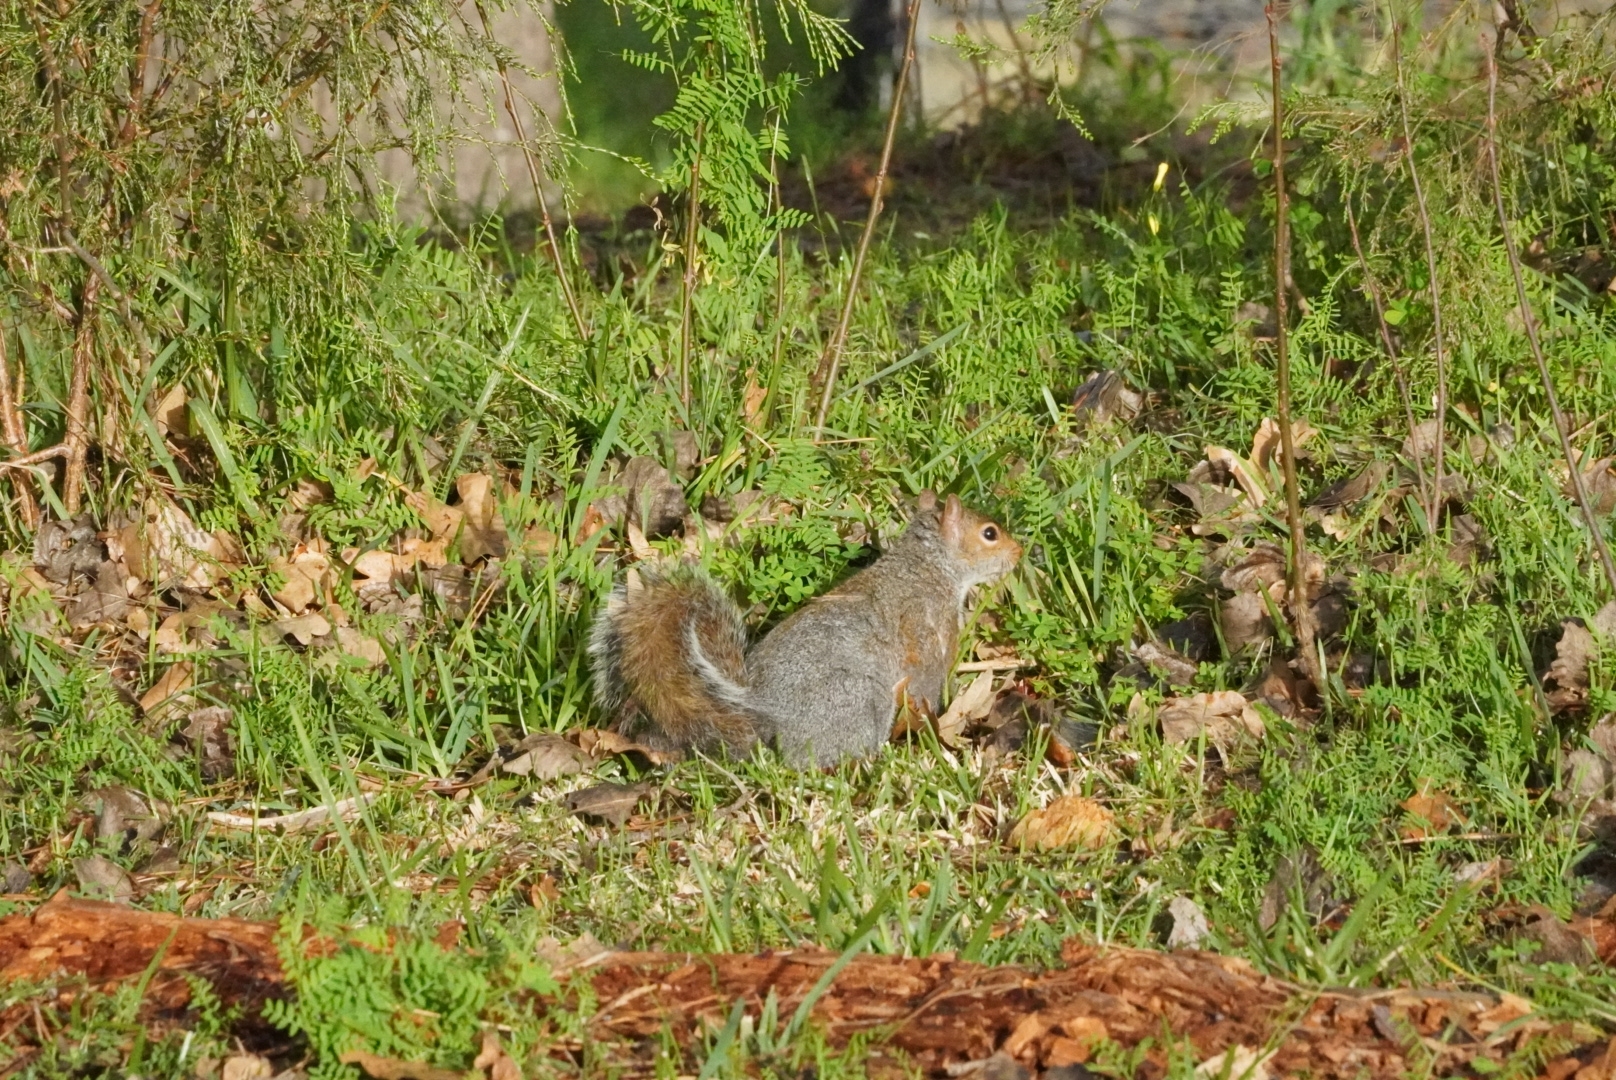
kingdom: Animalia
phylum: Chordata
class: Mammalia
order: Rodentia
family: Sciuridae
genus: Sciurus
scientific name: Sciurus carolinensis
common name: Eastern gray squirrel
